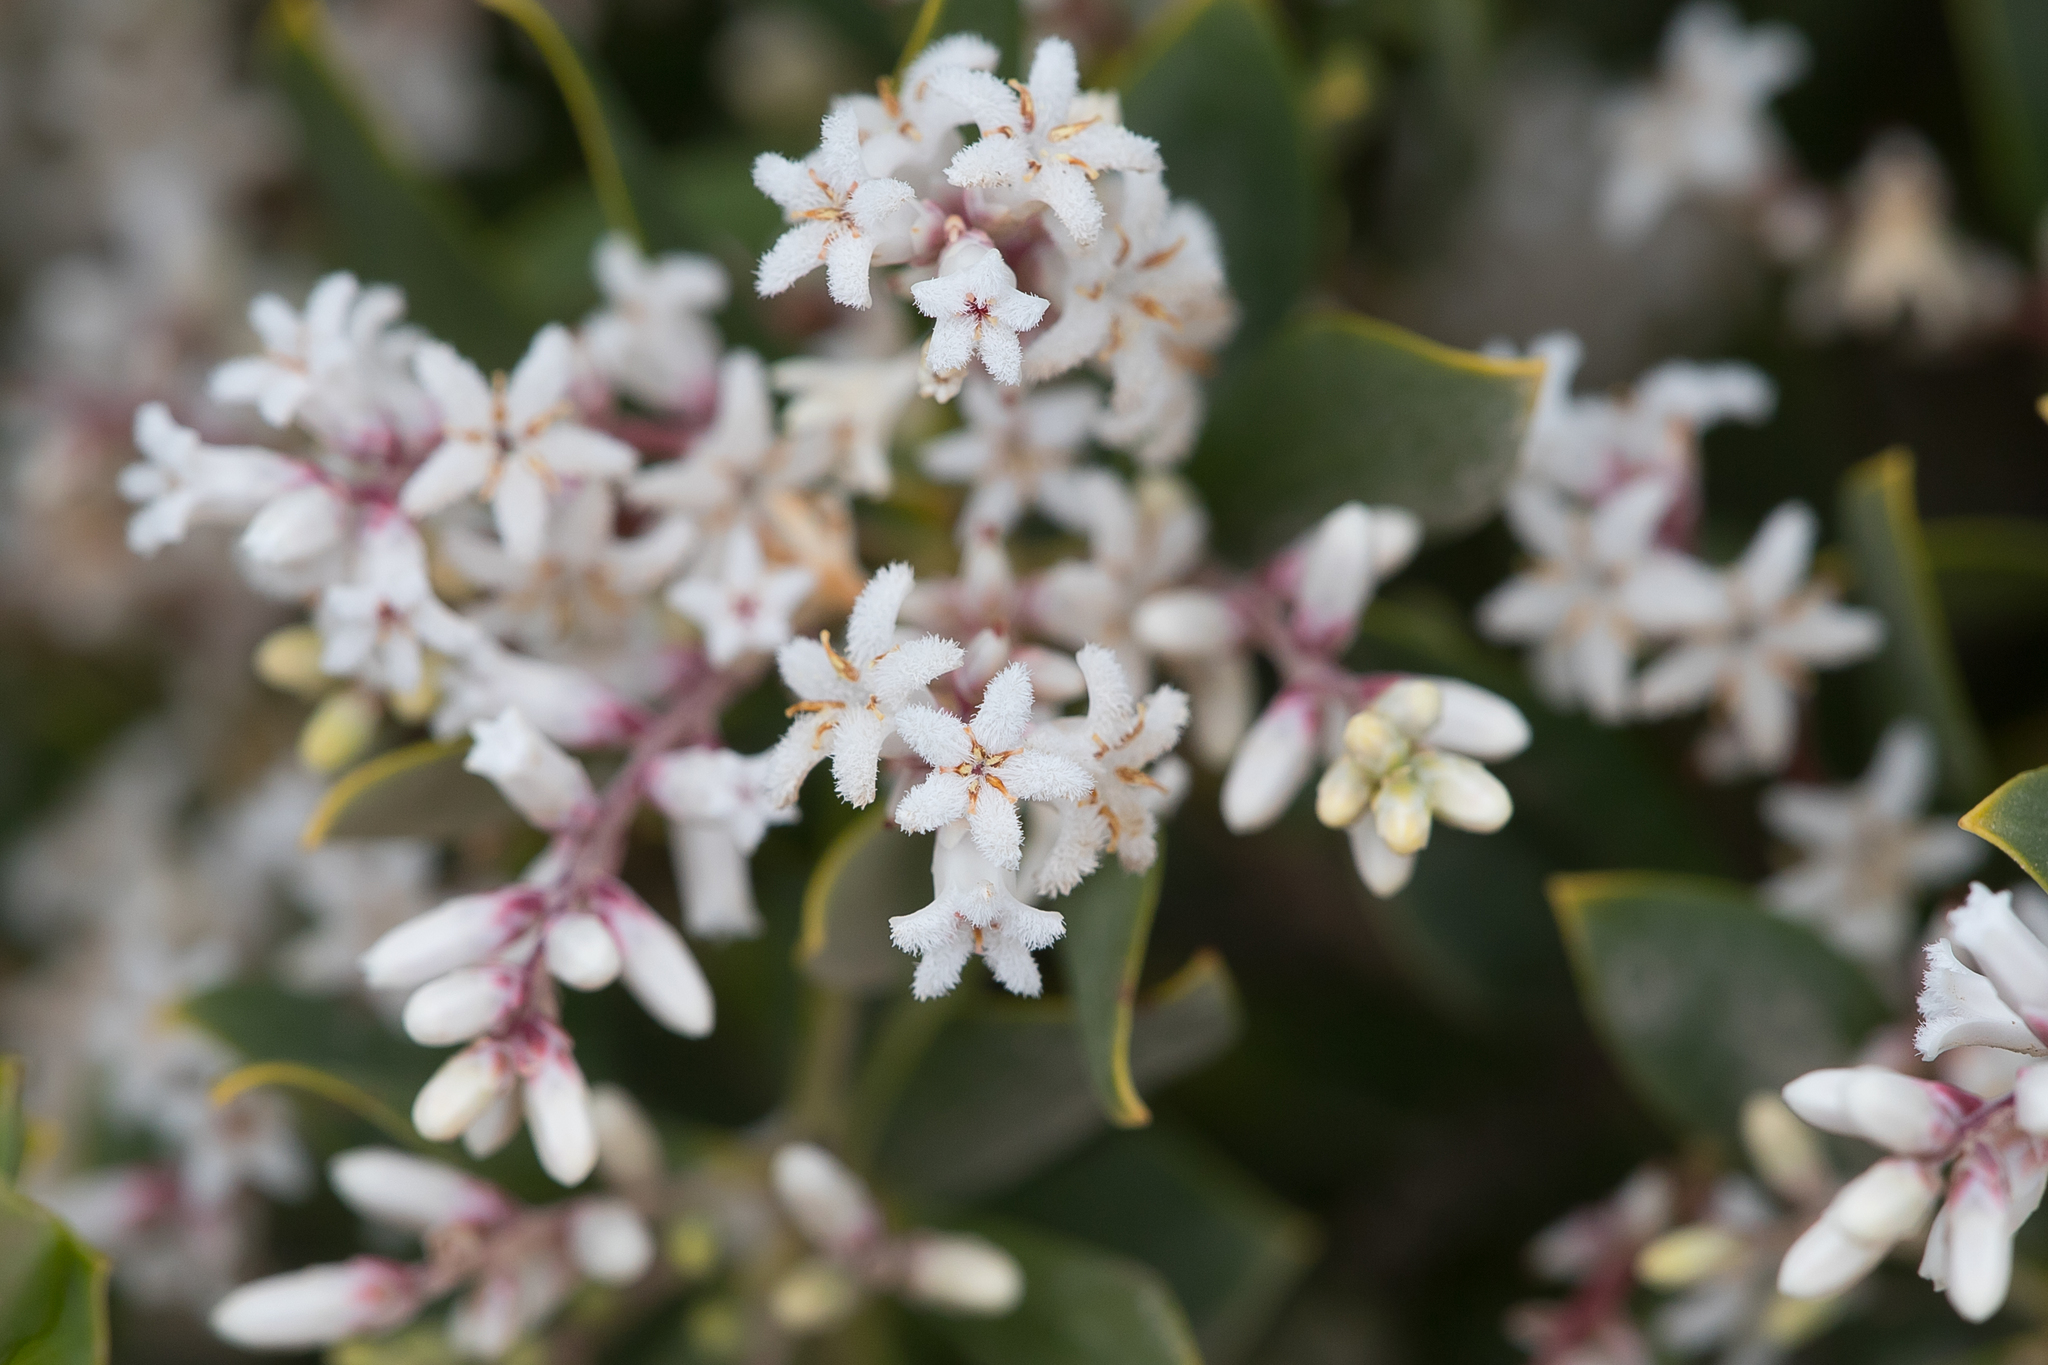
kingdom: Plantae
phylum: Tracheophyta
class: Magnoliopsida
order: Ericales
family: Ericaceae
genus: Leptecophylla
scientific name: Leptecophylla parvifolia
